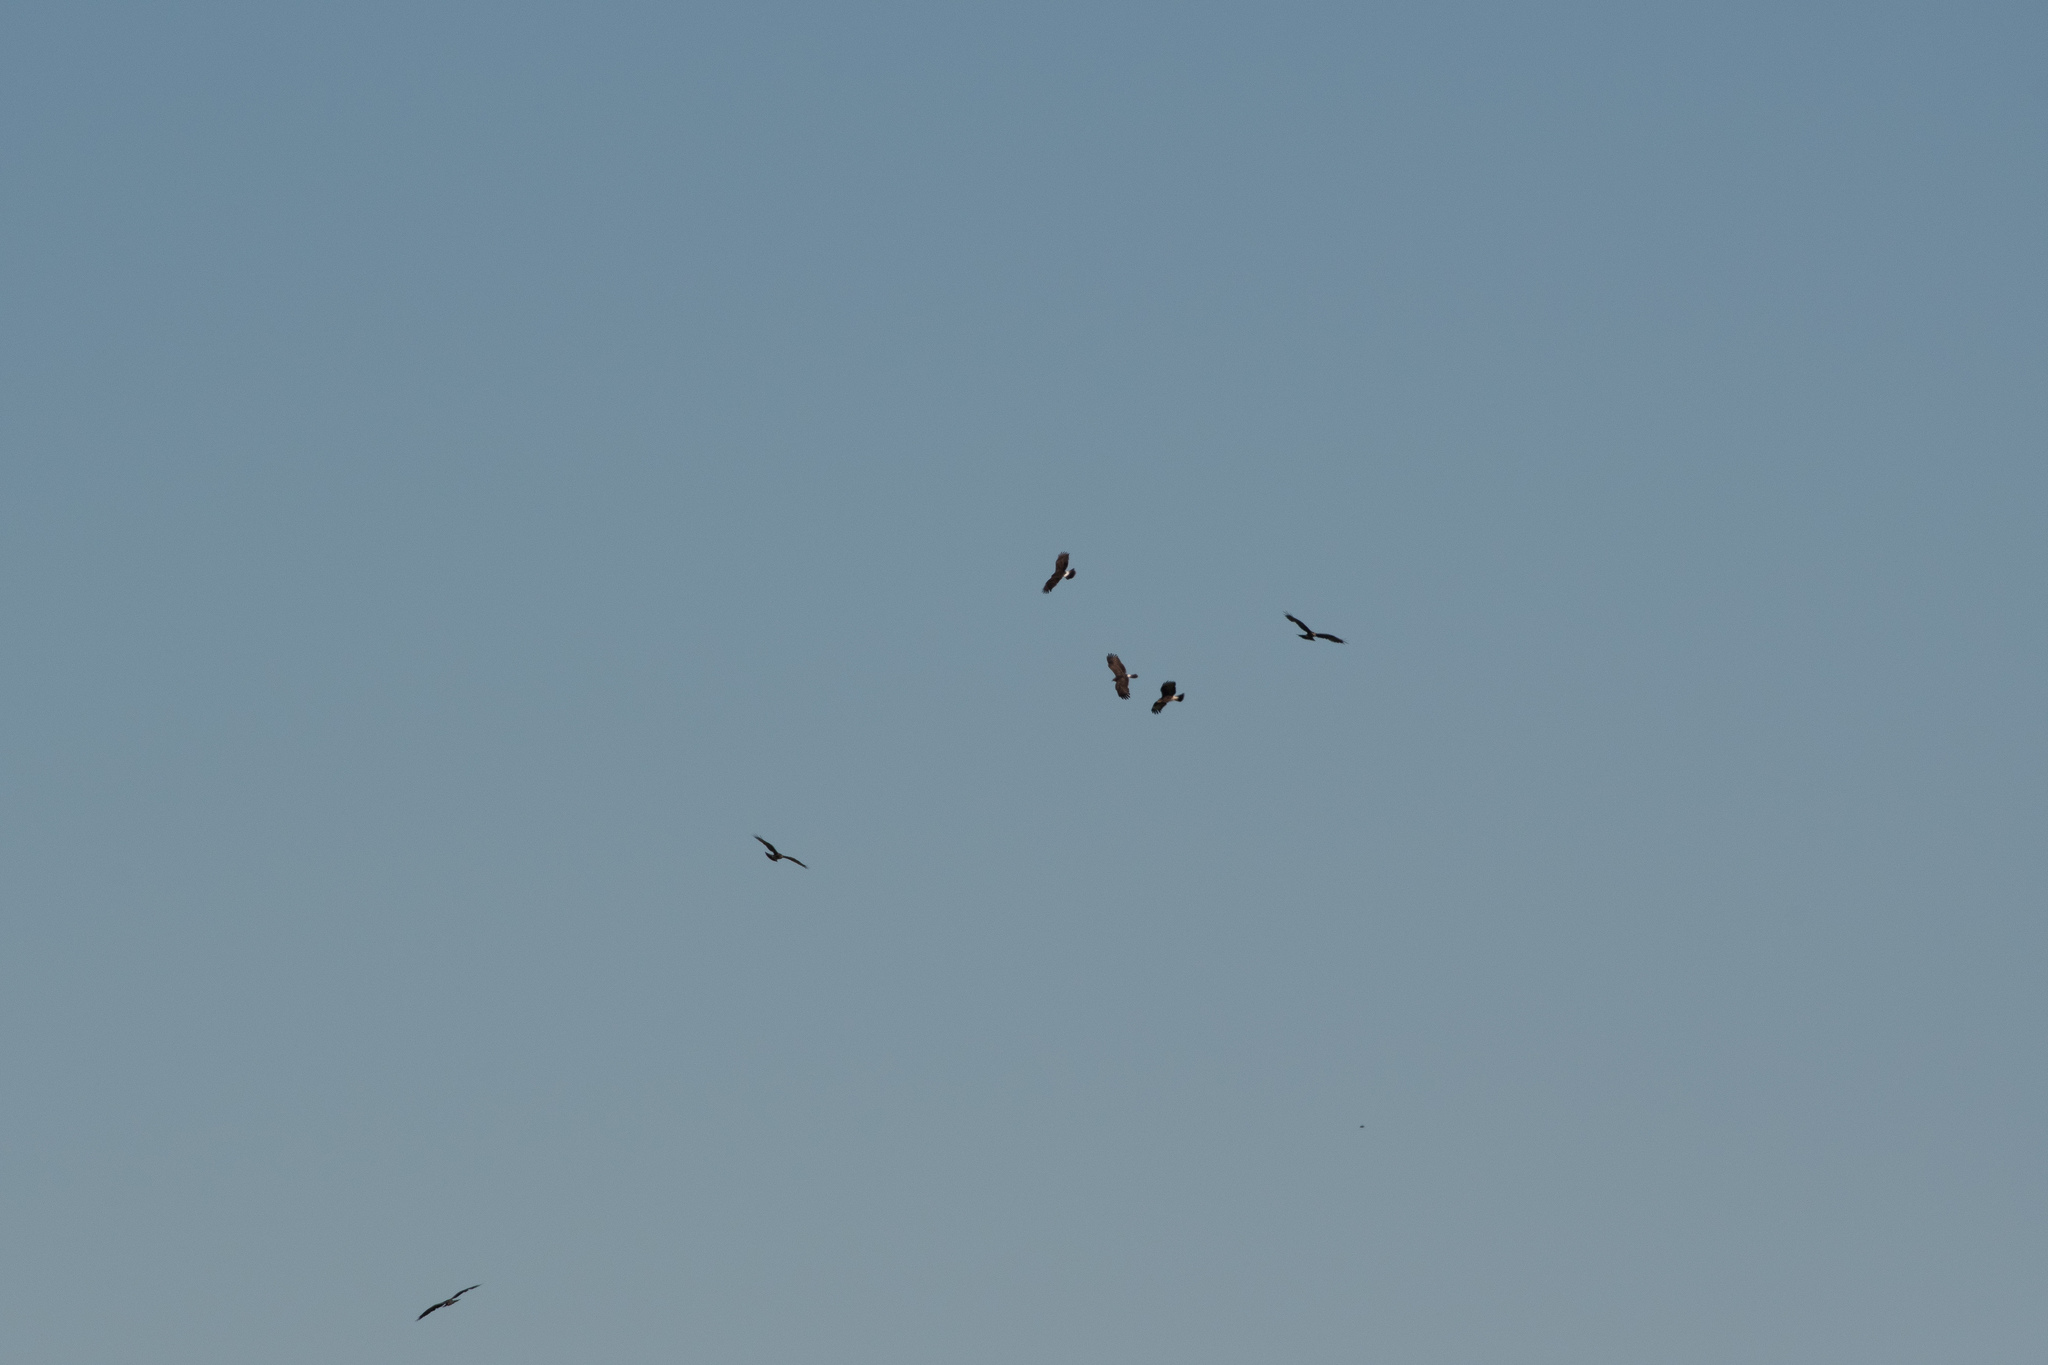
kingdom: Animalia
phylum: Chordata
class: Aves
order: Accipitriformes
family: Accipitridae
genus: Rostrhamus
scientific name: Rostrhamus sociabilis
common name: Snail kite
